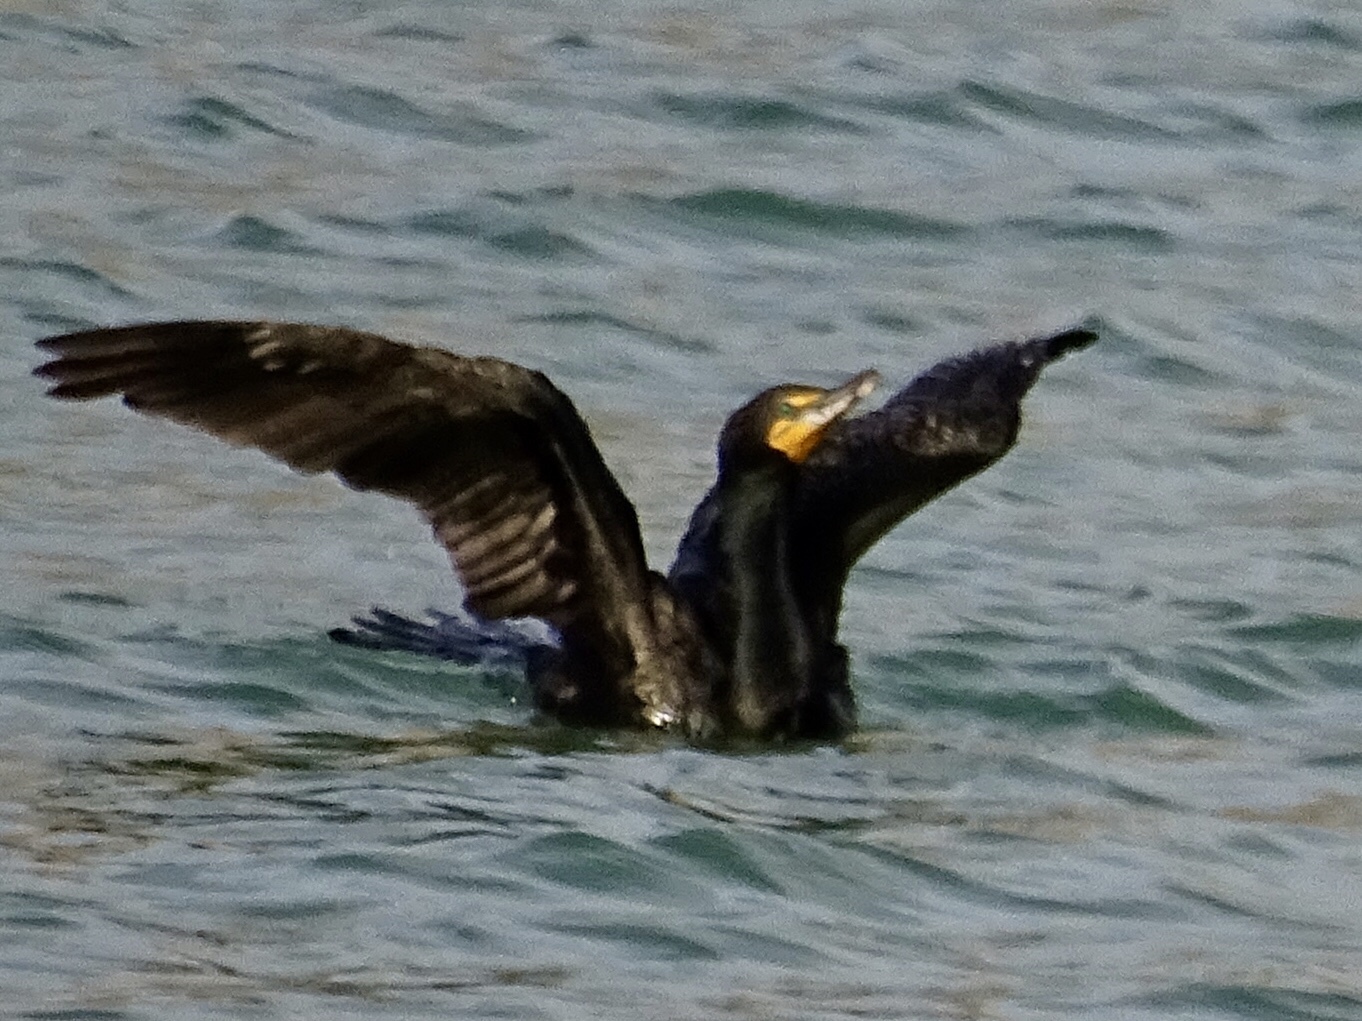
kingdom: Animalia
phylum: Chordata
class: Aves
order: Suliformes
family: Phalacrocoracidae
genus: Phalacrocorax
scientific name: Phalacrocorax auritus
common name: Double-crested cormorant
